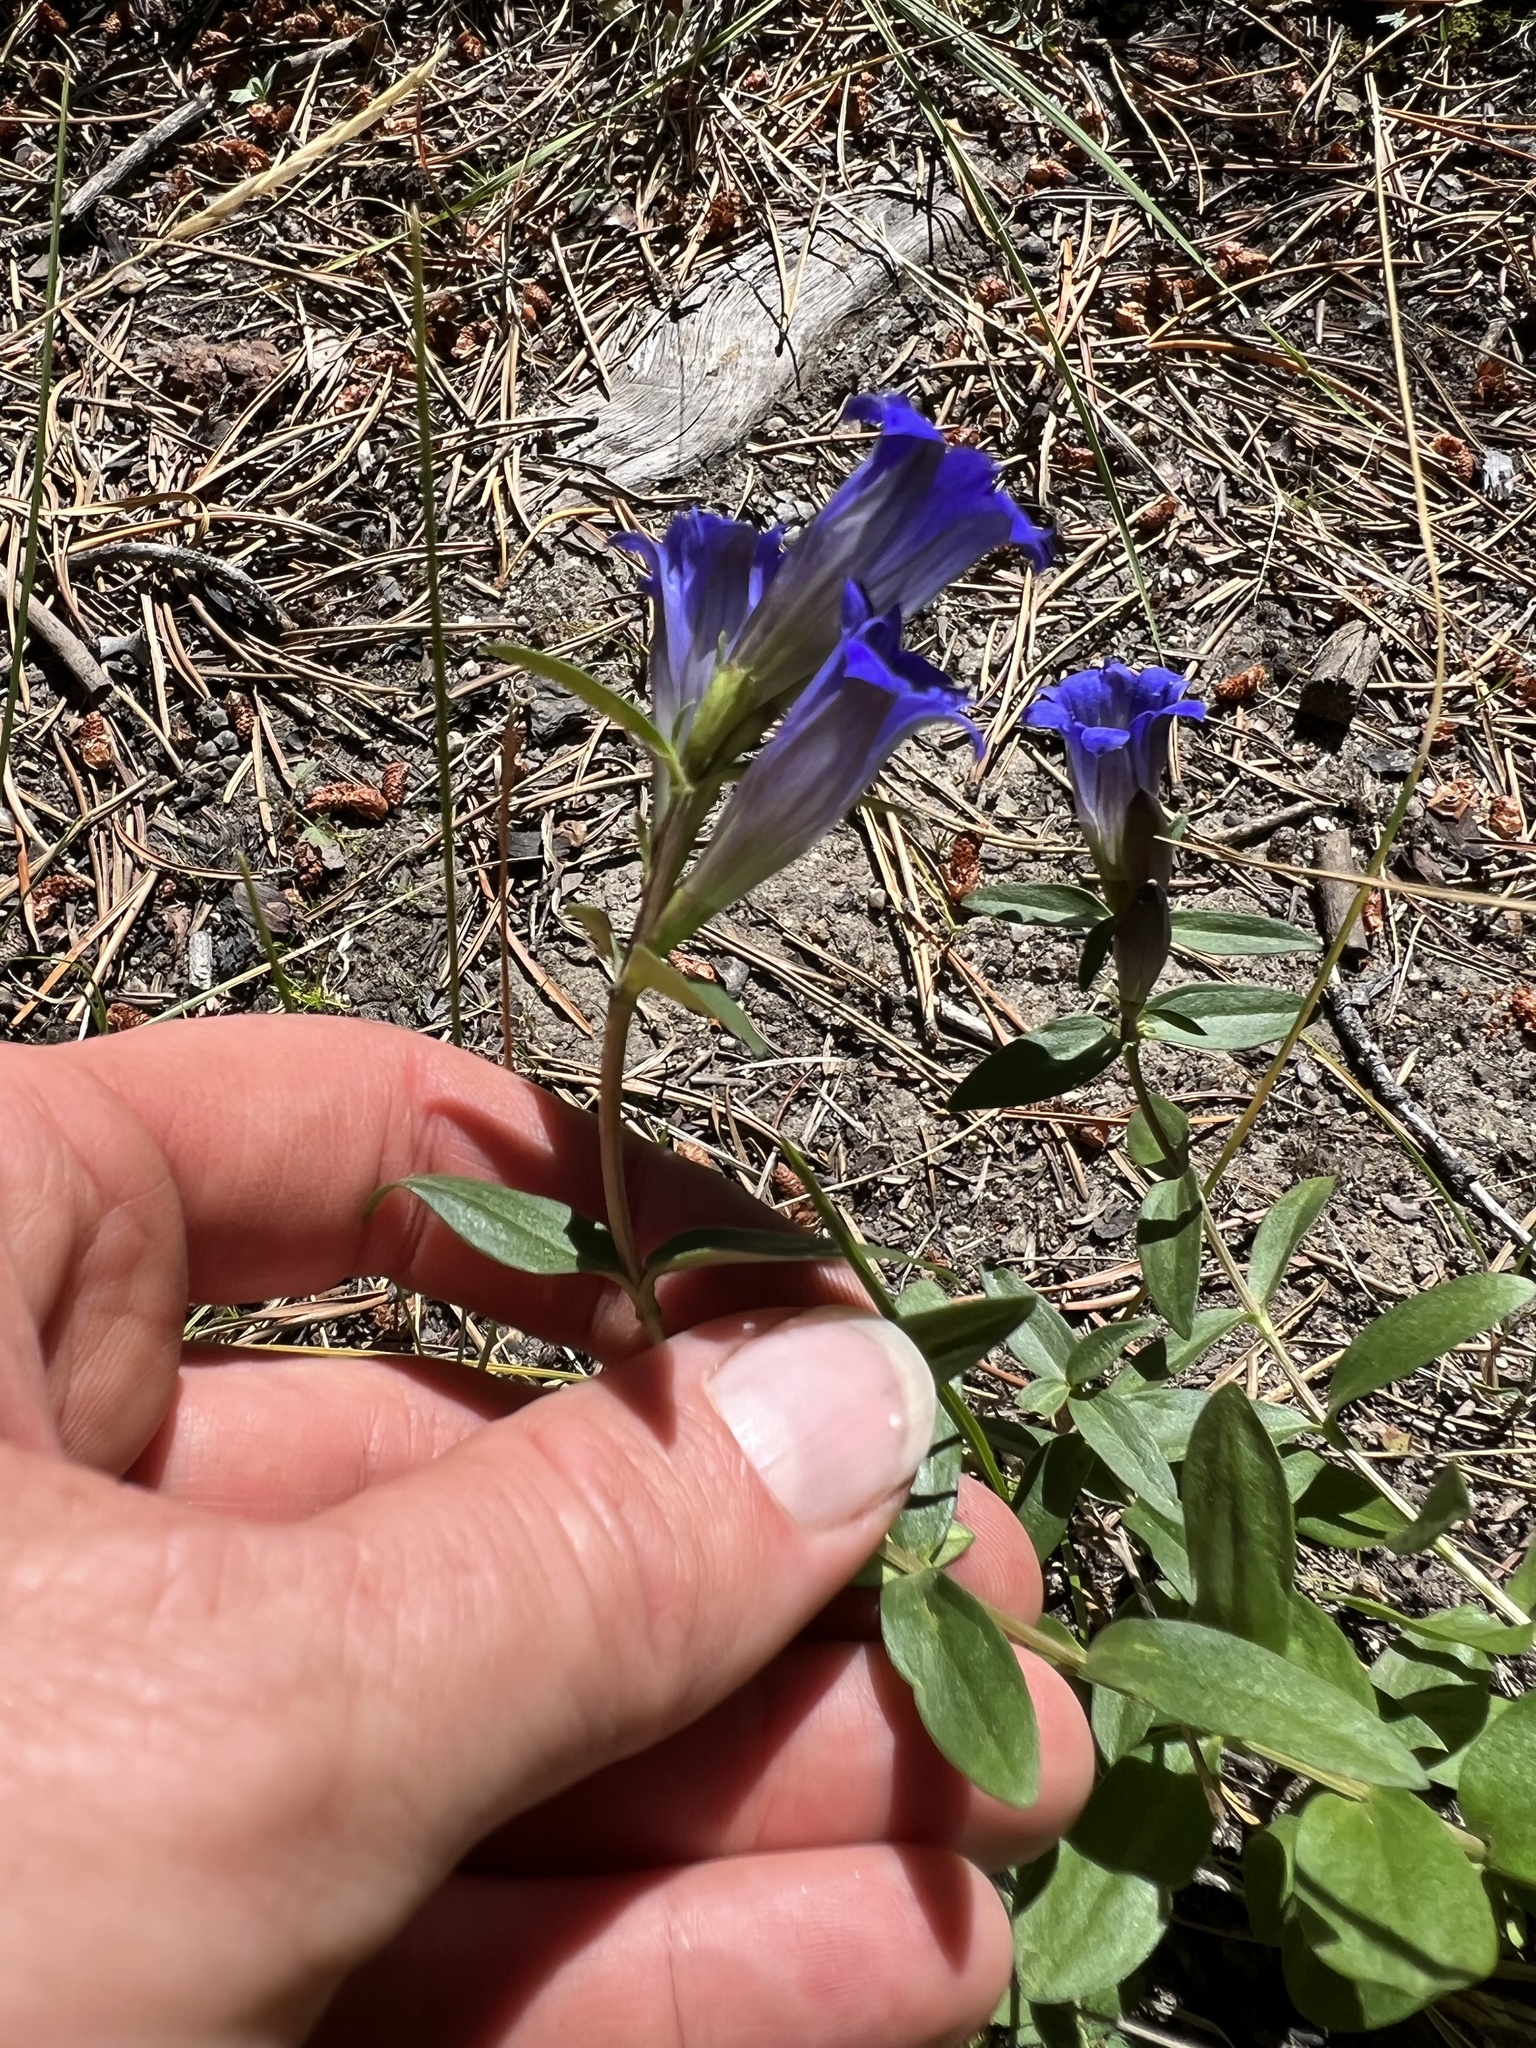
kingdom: Plantae
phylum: Tracheophyta
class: Magnoliopsida
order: Gentianales
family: Gentianaceae
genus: Gentiana
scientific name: Gentiana affinis
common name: Rocky mountain gentian
